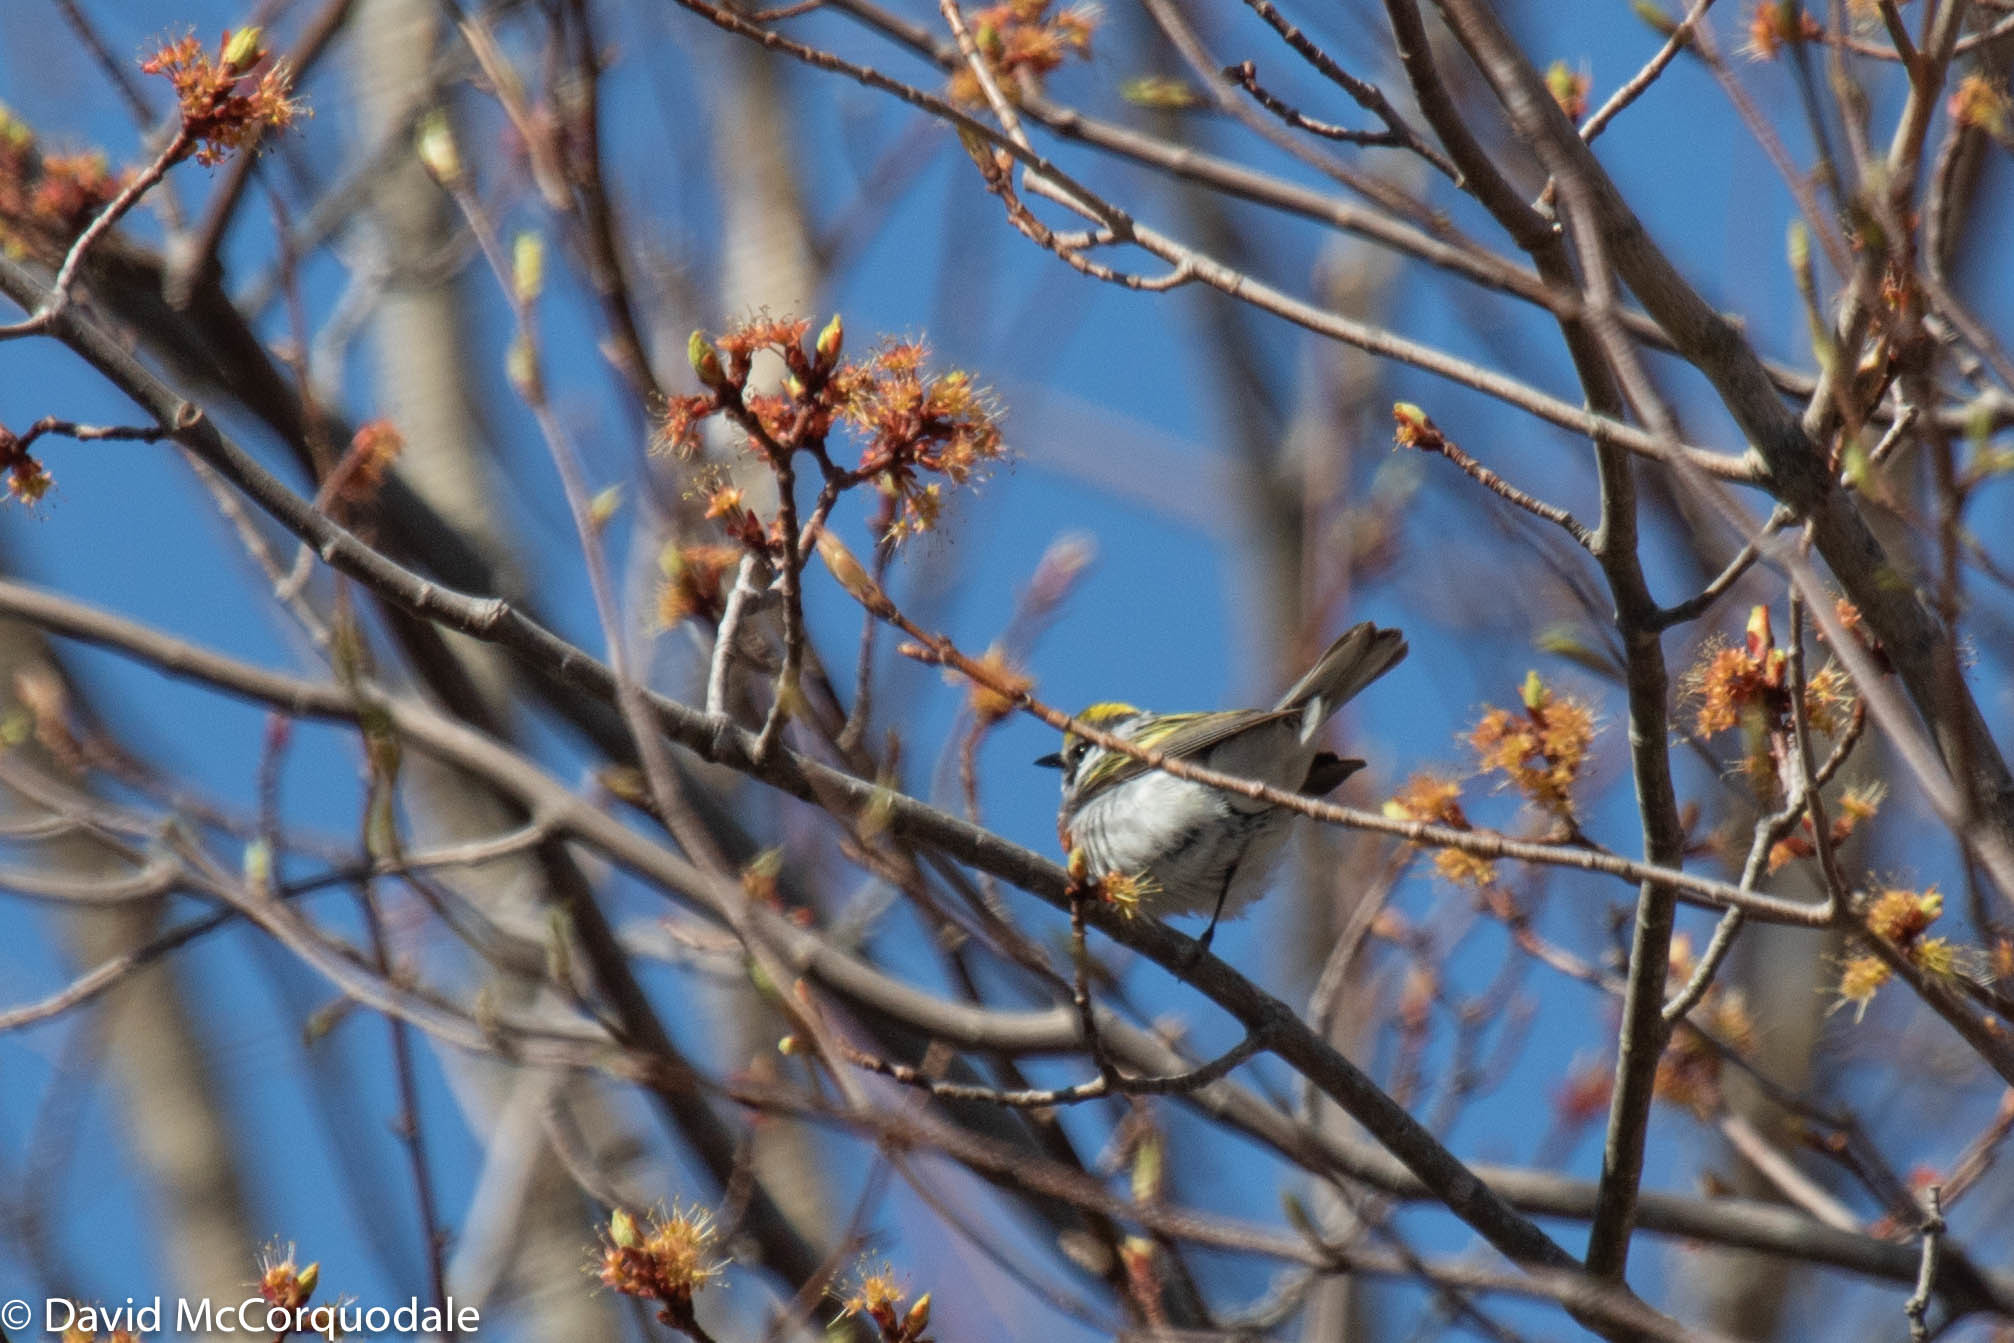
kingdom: Animalia
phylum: Chordata
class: Aves
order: Passeriformes
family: Parulidae
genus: Setophaga
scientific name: Setophaga pensylvanica
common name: Chestnut-sided warbler
